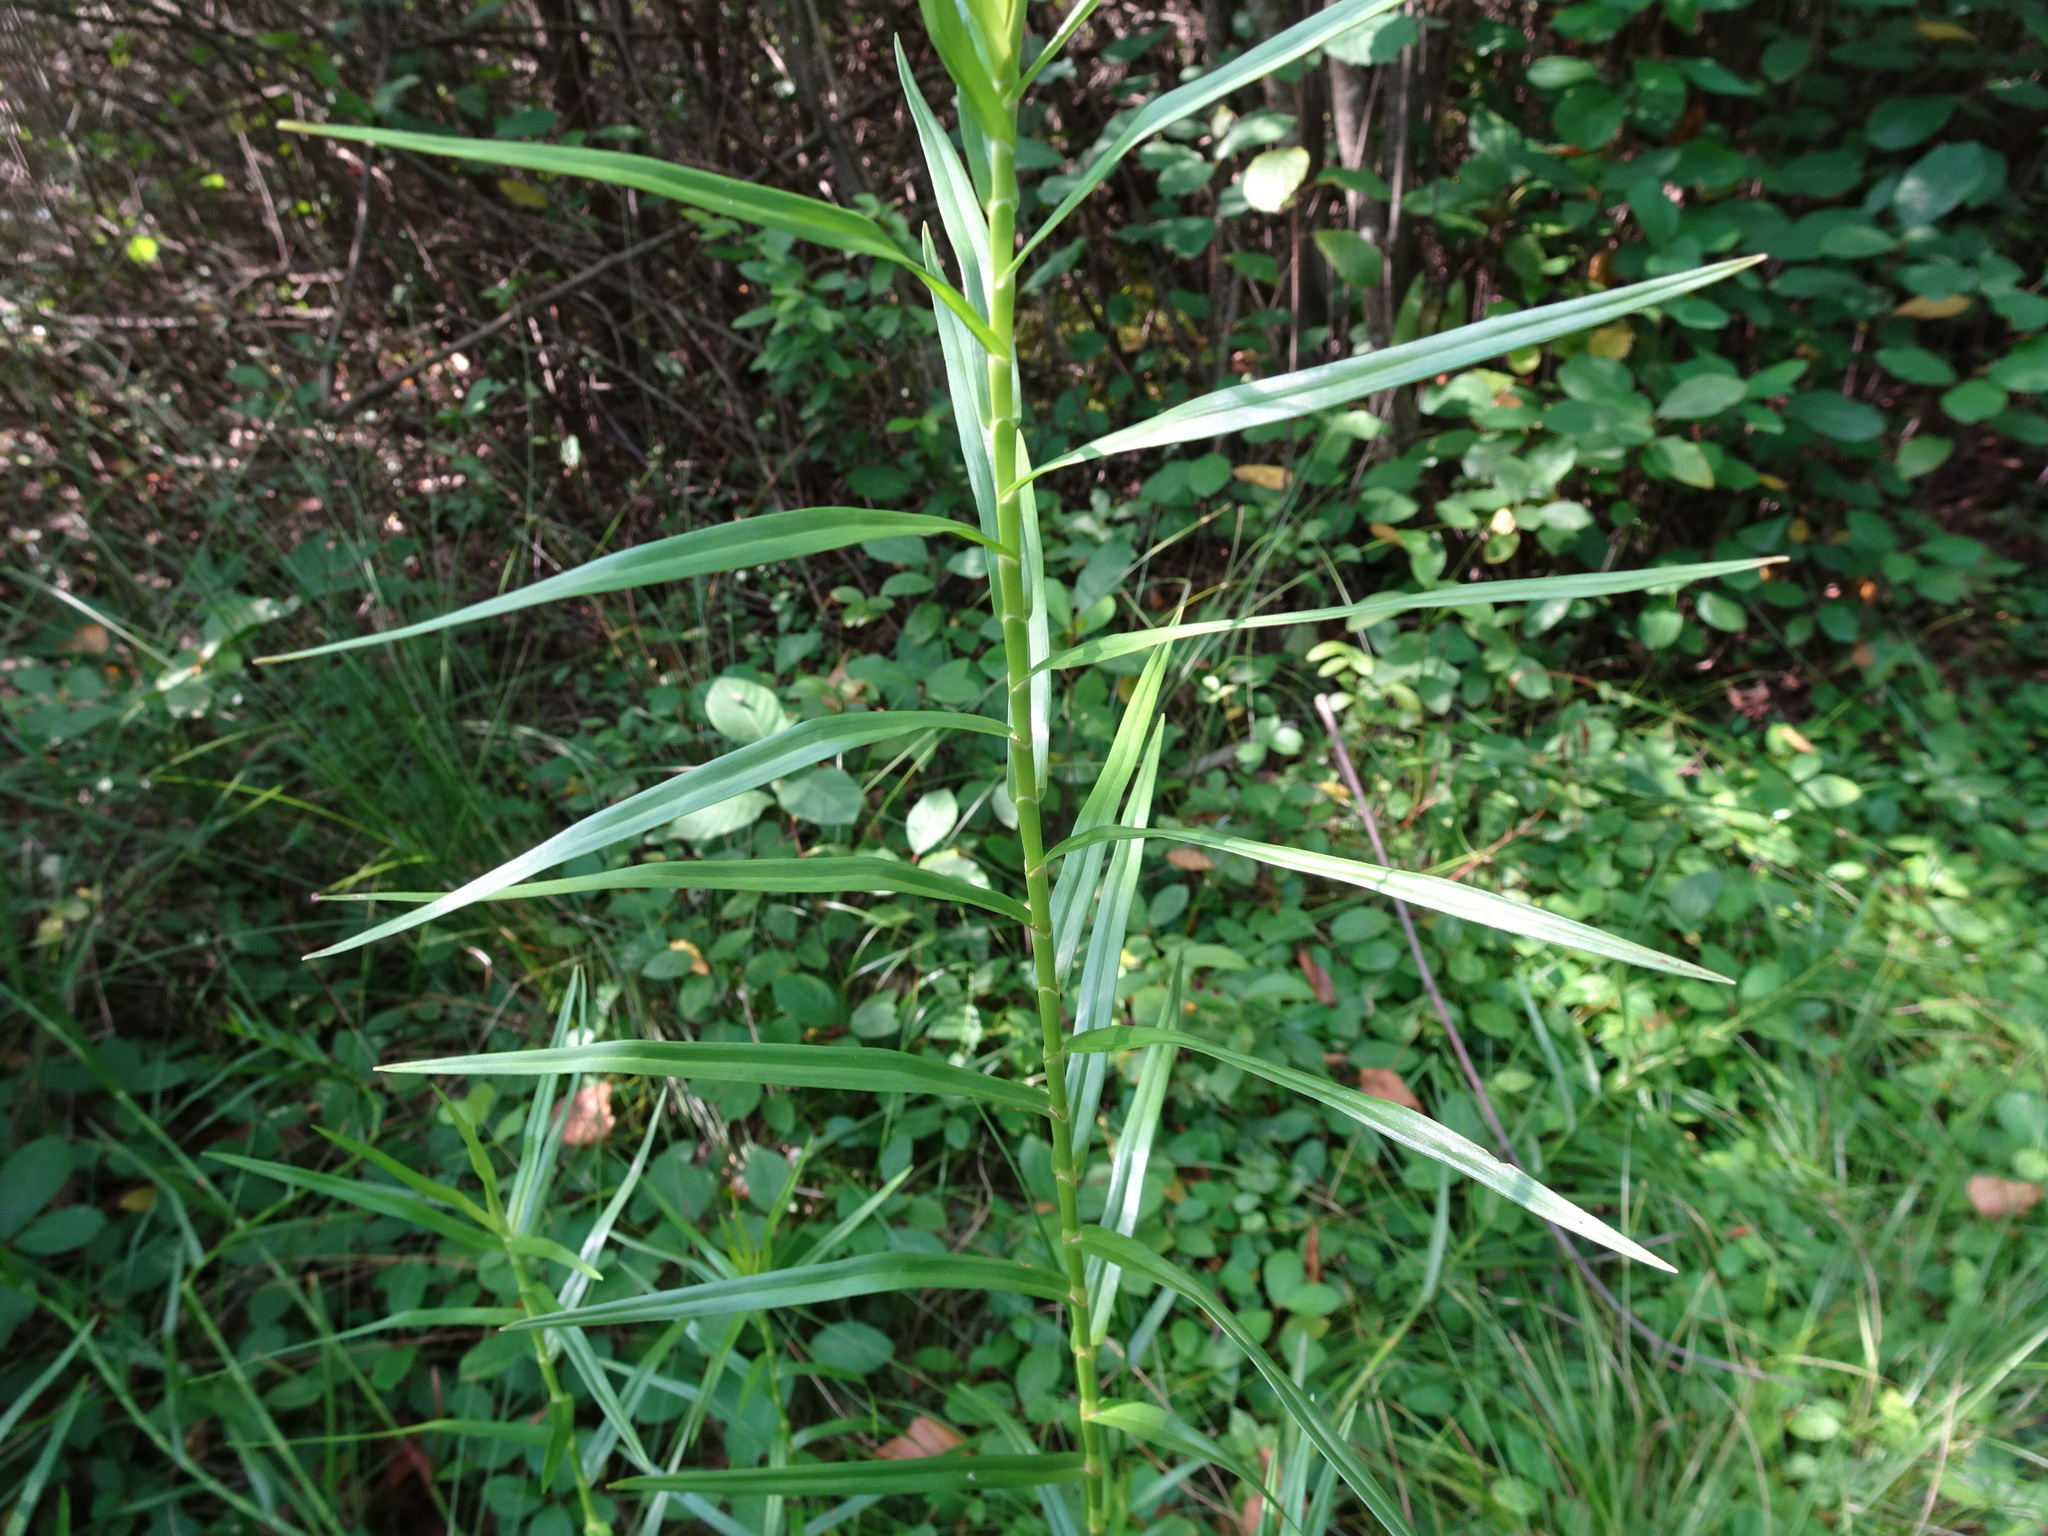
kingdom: Plantae
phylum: Tracheophyta
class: Liliopsida
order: Poales
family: Cyperaceae
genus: Dulichium
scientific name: Dulichium arundinaceum
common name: Three-way sedge
